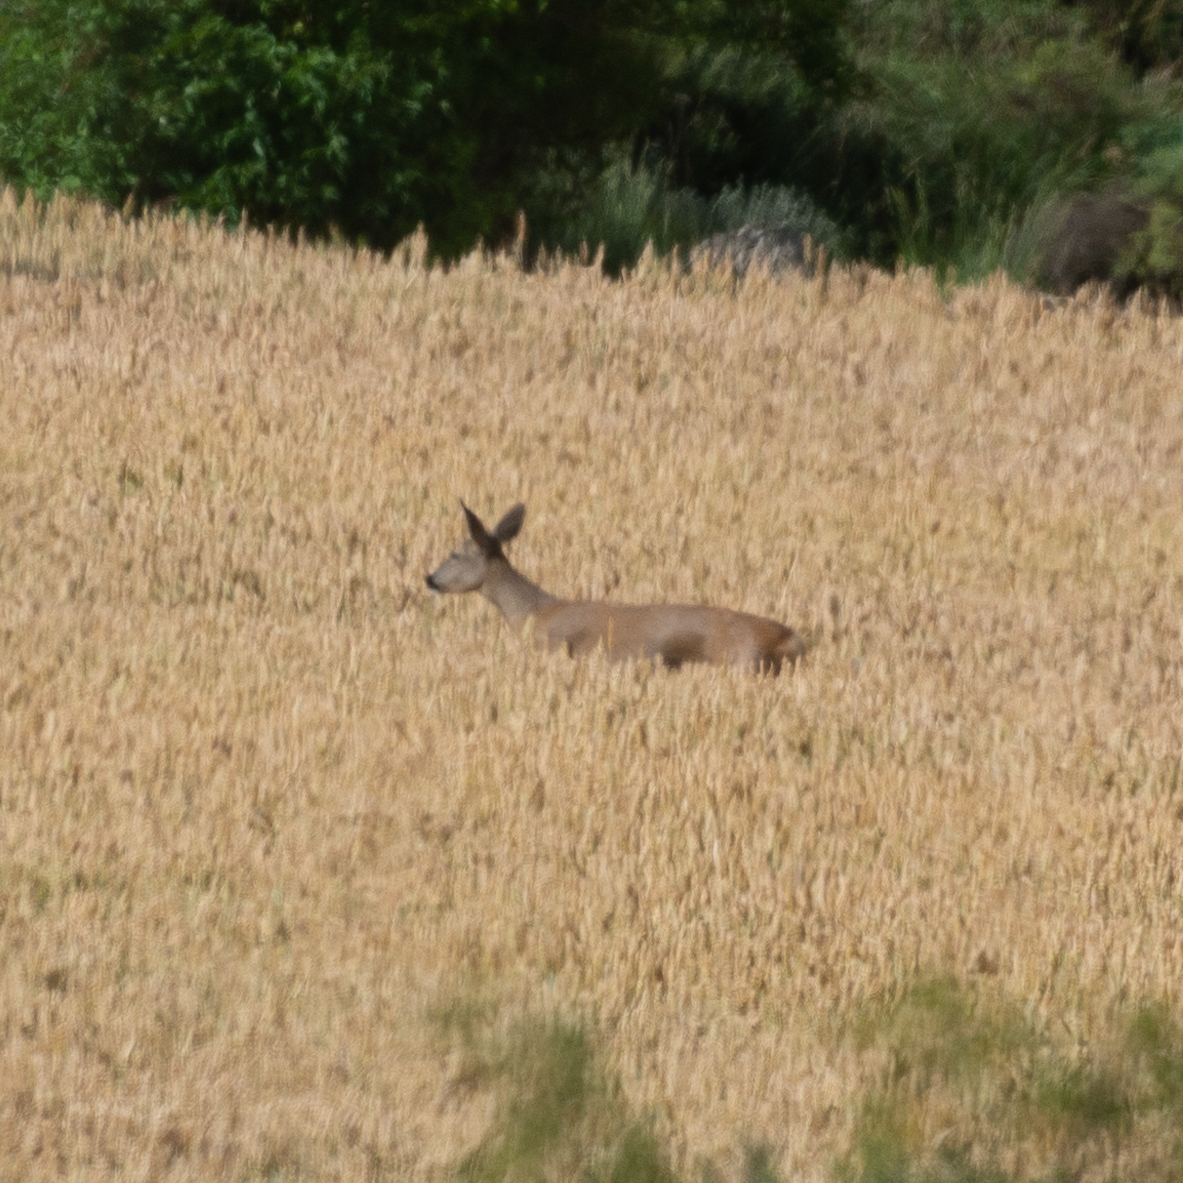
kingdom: Animalia
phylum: Chordata
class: Mammalia
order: Artiodactyla
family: Cervidae
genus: Capreolus
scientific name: Capreolus capreolus
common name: Western roe deer
